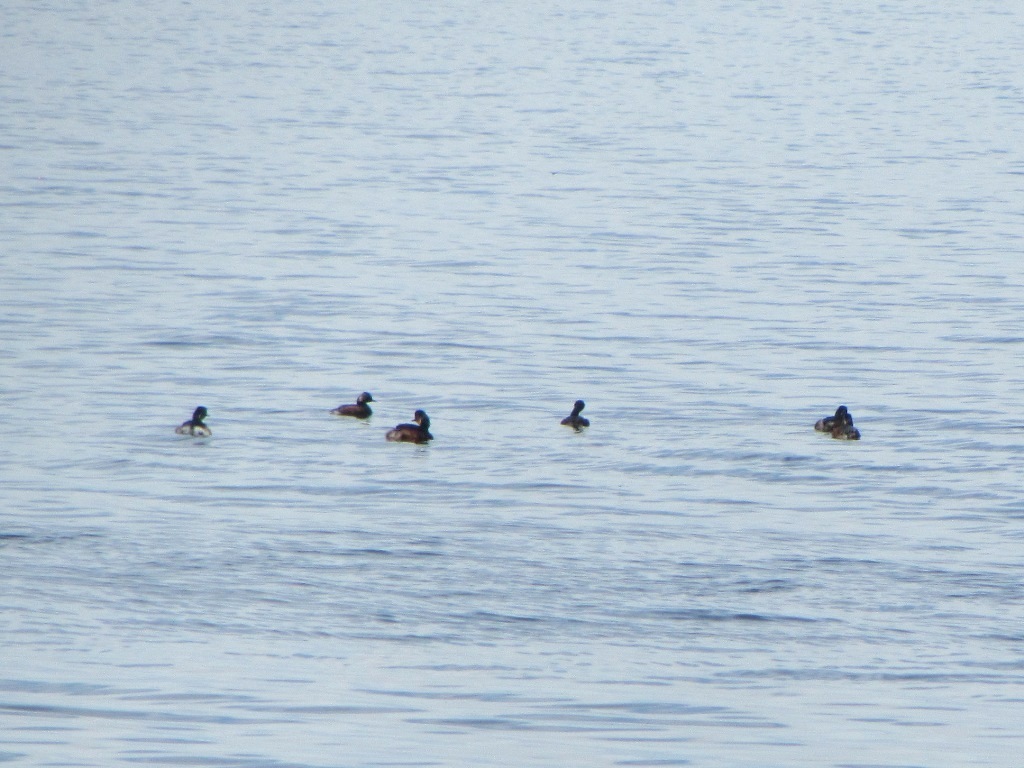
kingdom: Animalia
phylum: Chordata
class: Aves
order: Podicipediformes
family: Podicipedidae
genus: Podiceps
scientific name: Podiceps nigricollis
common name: Black-necked grebe
